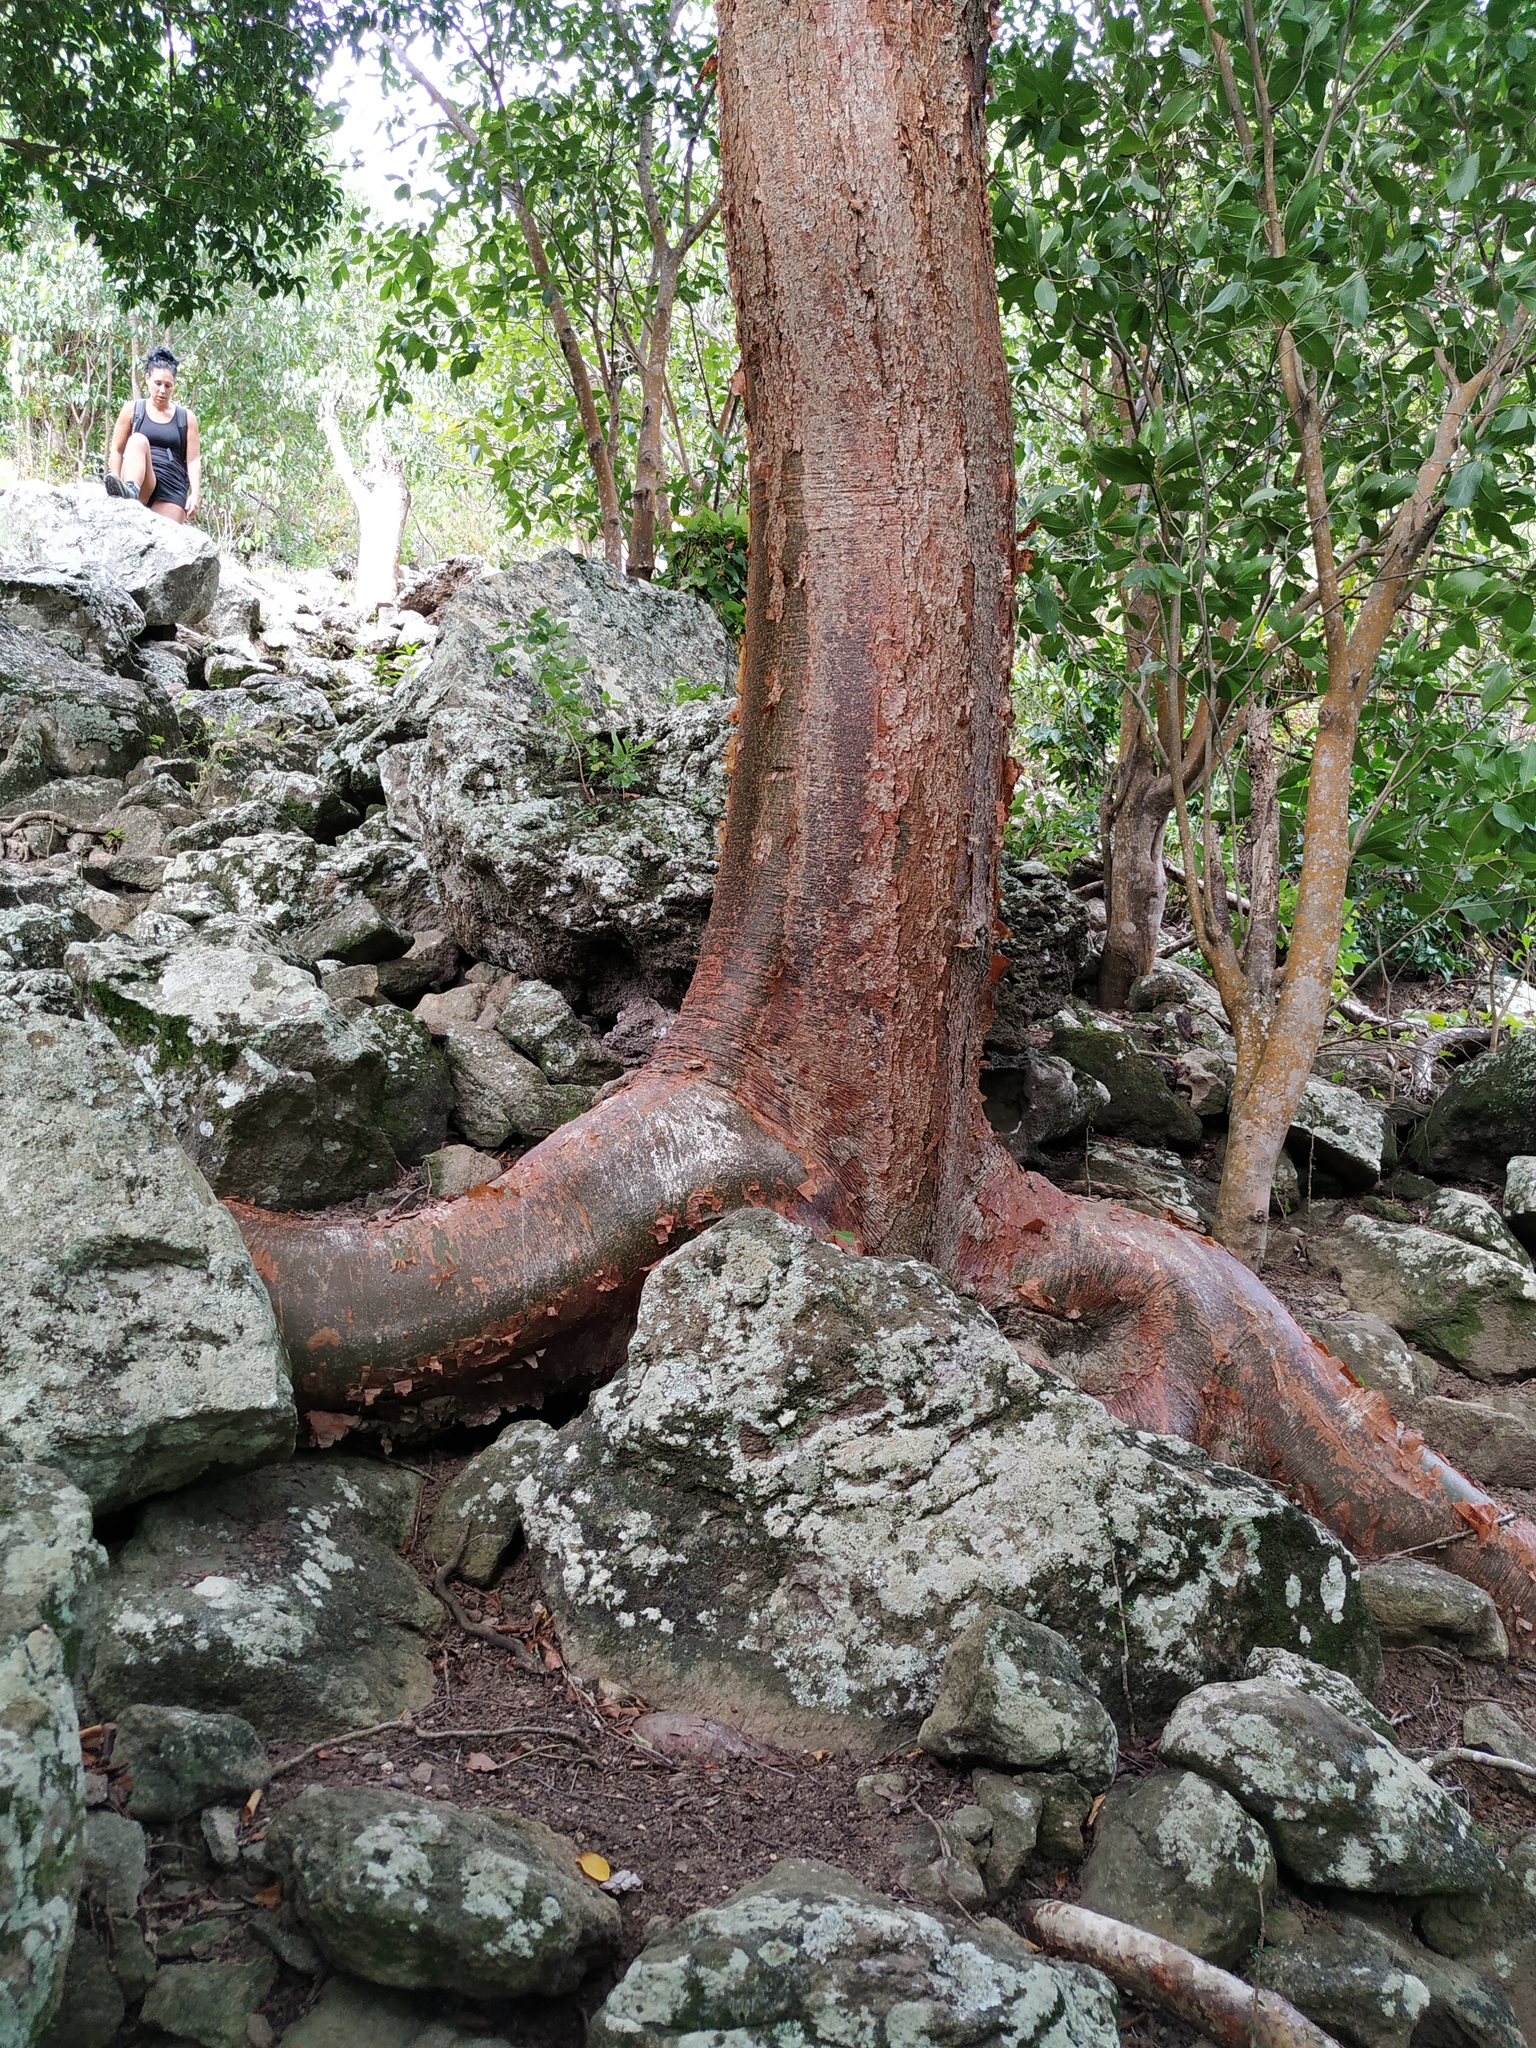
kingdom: Plantae
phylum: Tracheophyta
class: Magnoliopsida
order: Sapindales
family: Burseraceae
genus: Bursera
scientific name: Bursera simaruba
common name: Turpentine tree
